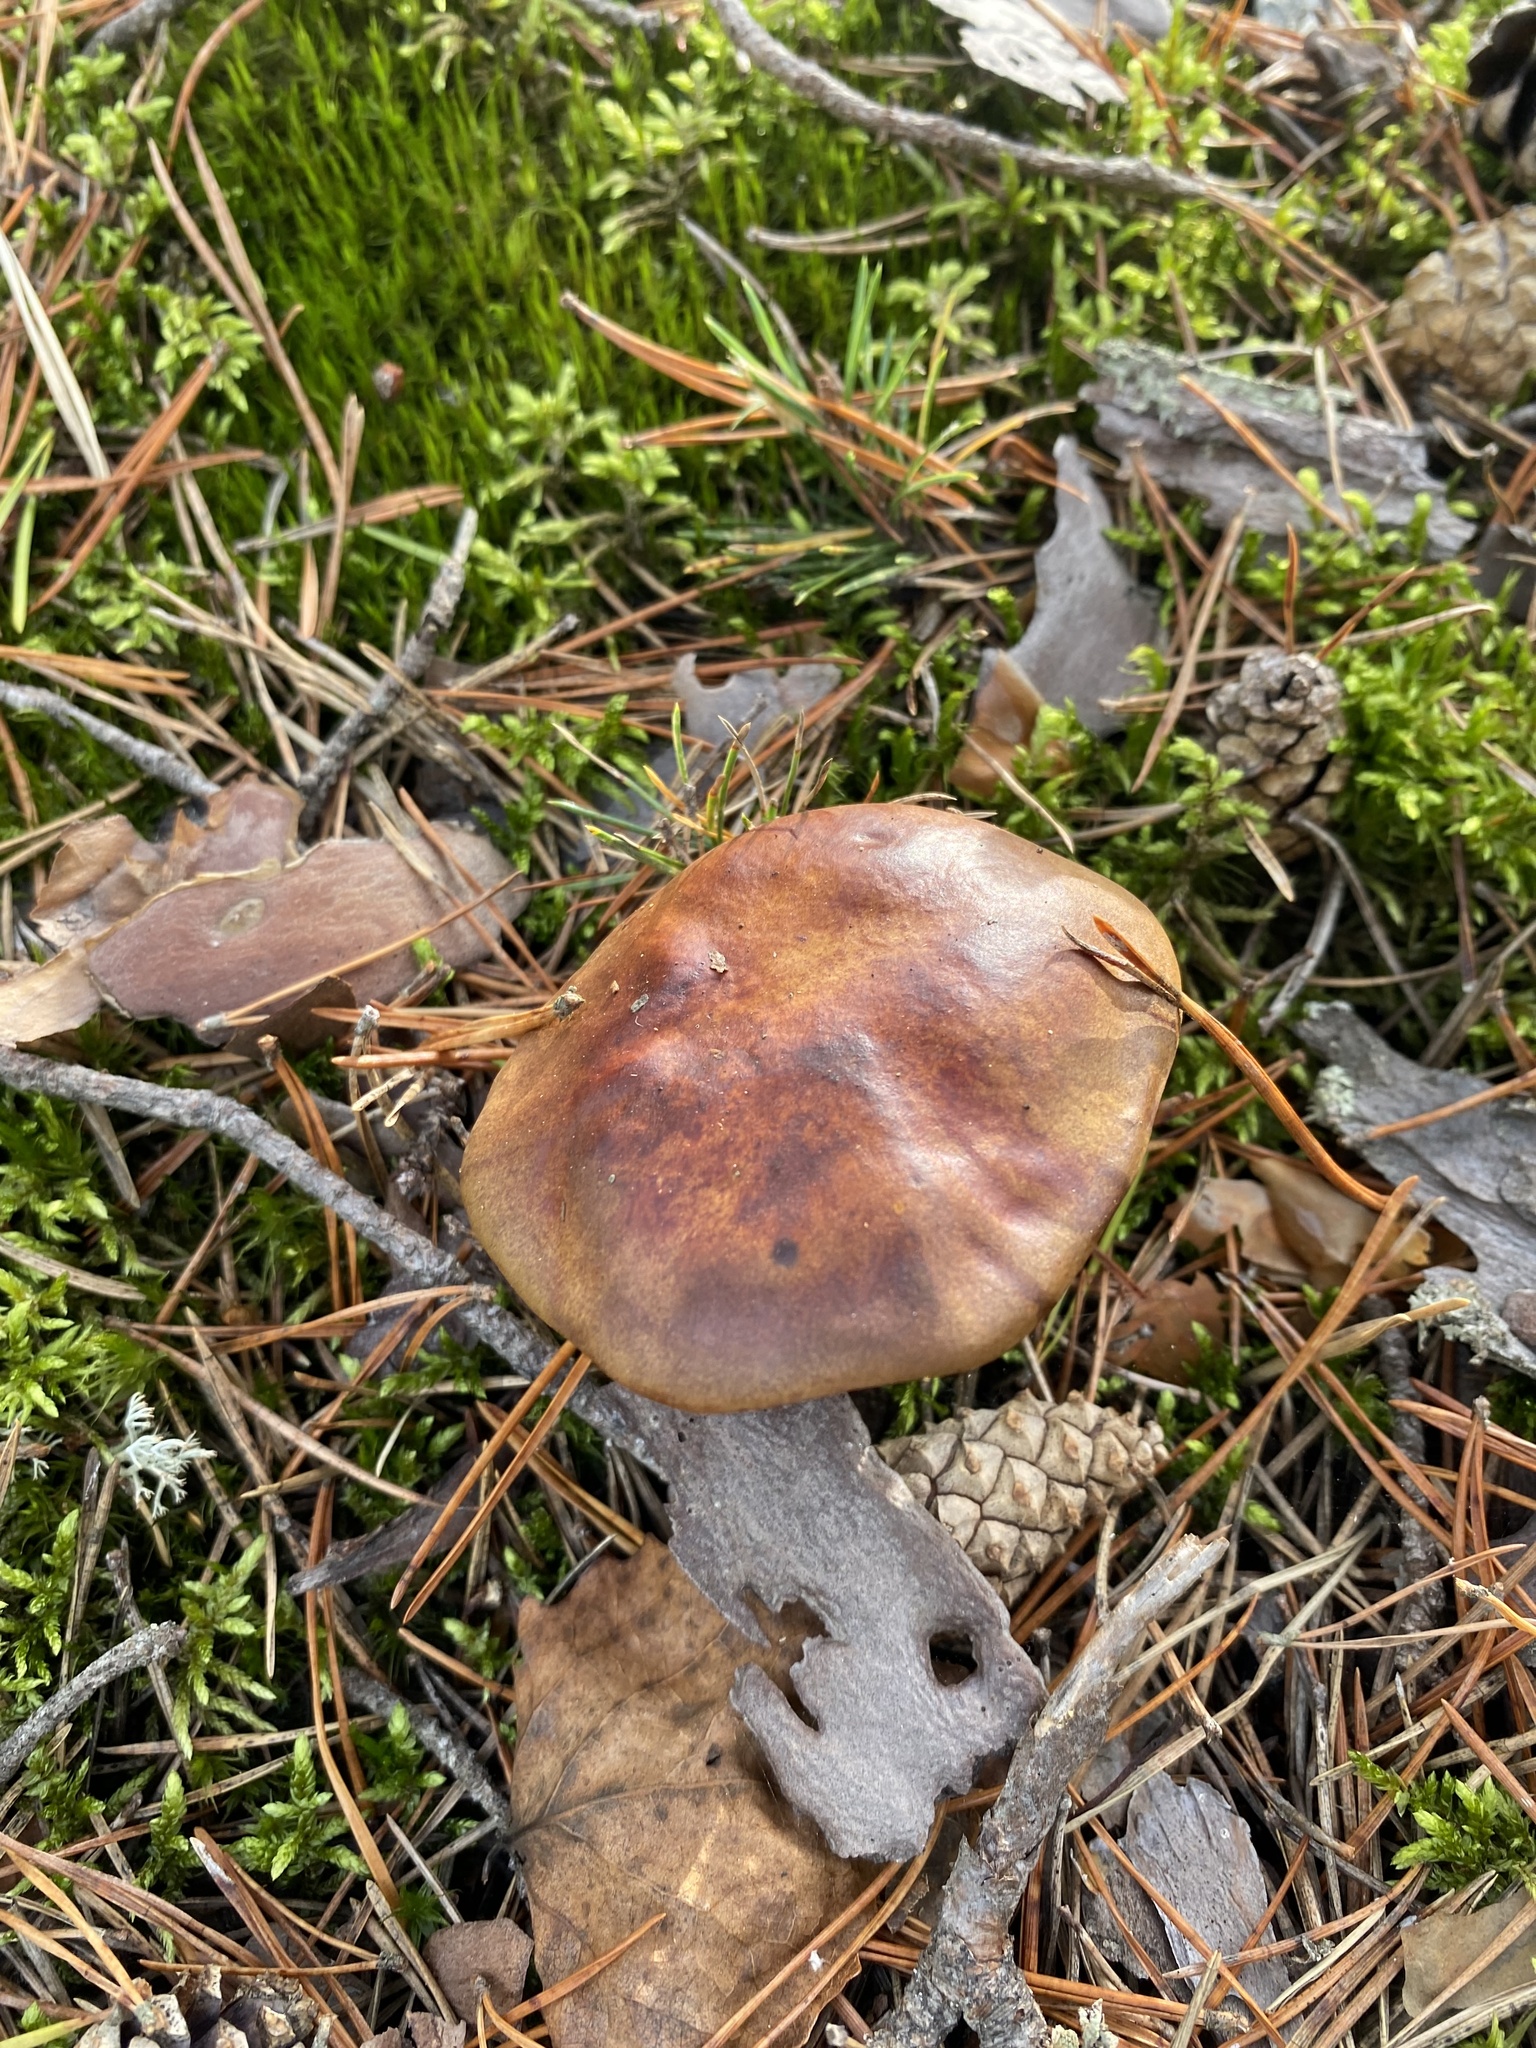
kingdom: Fungi
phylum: Basidiomycota
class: Agaricomycetes
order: Boletales
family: Boletaceae
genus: Imleria
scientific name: Imleria badia
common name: Bay bolete
